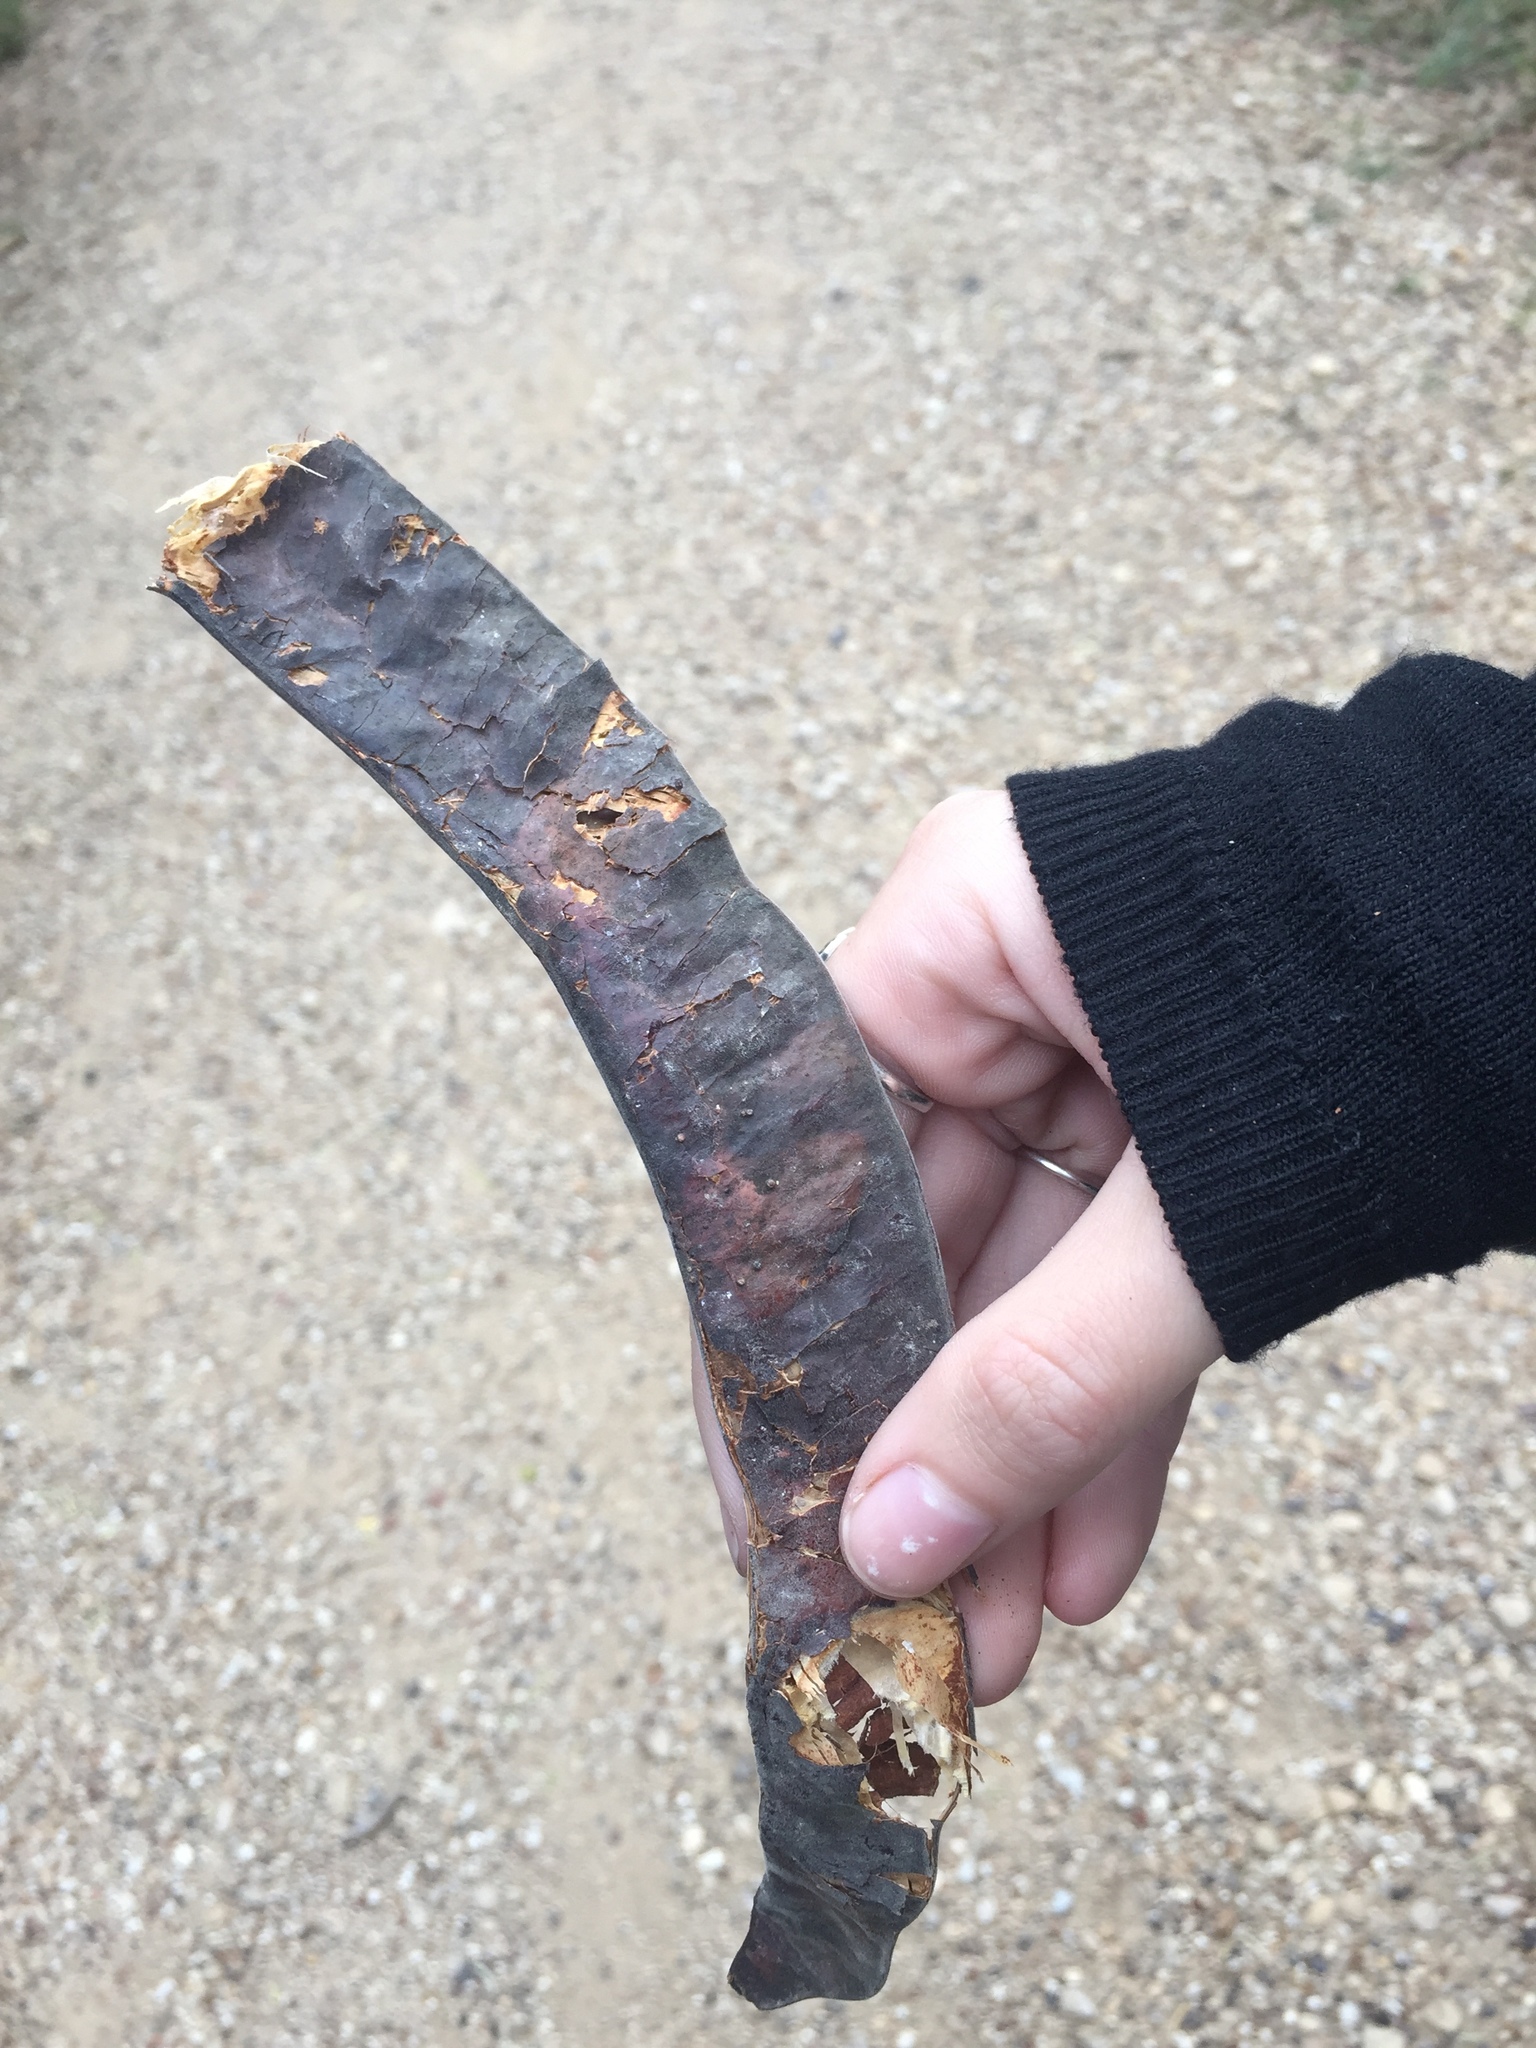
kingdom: Plantae
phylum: Tracheophyta
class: Magnoliopsida
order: Fabales
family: Fabaceae
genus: Gleditsia
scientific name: Gleditsia triacanthos
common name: Common honeylocust
